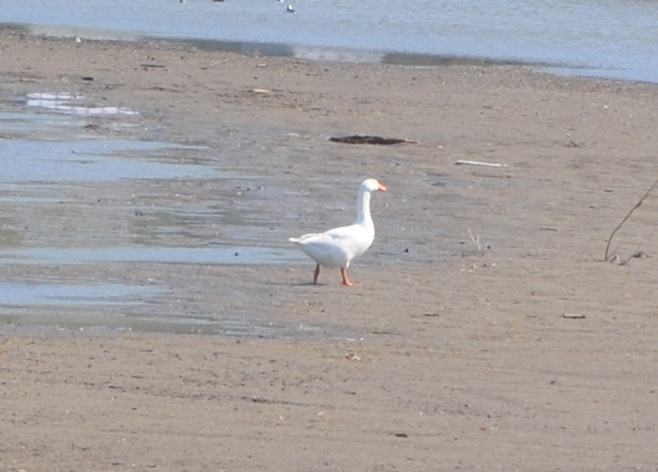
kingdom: Animalia
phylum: Chordata
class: Aves
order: Anseriformes
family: Anatidae
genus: Anser
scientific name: Anser anser
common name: Greylag goose
